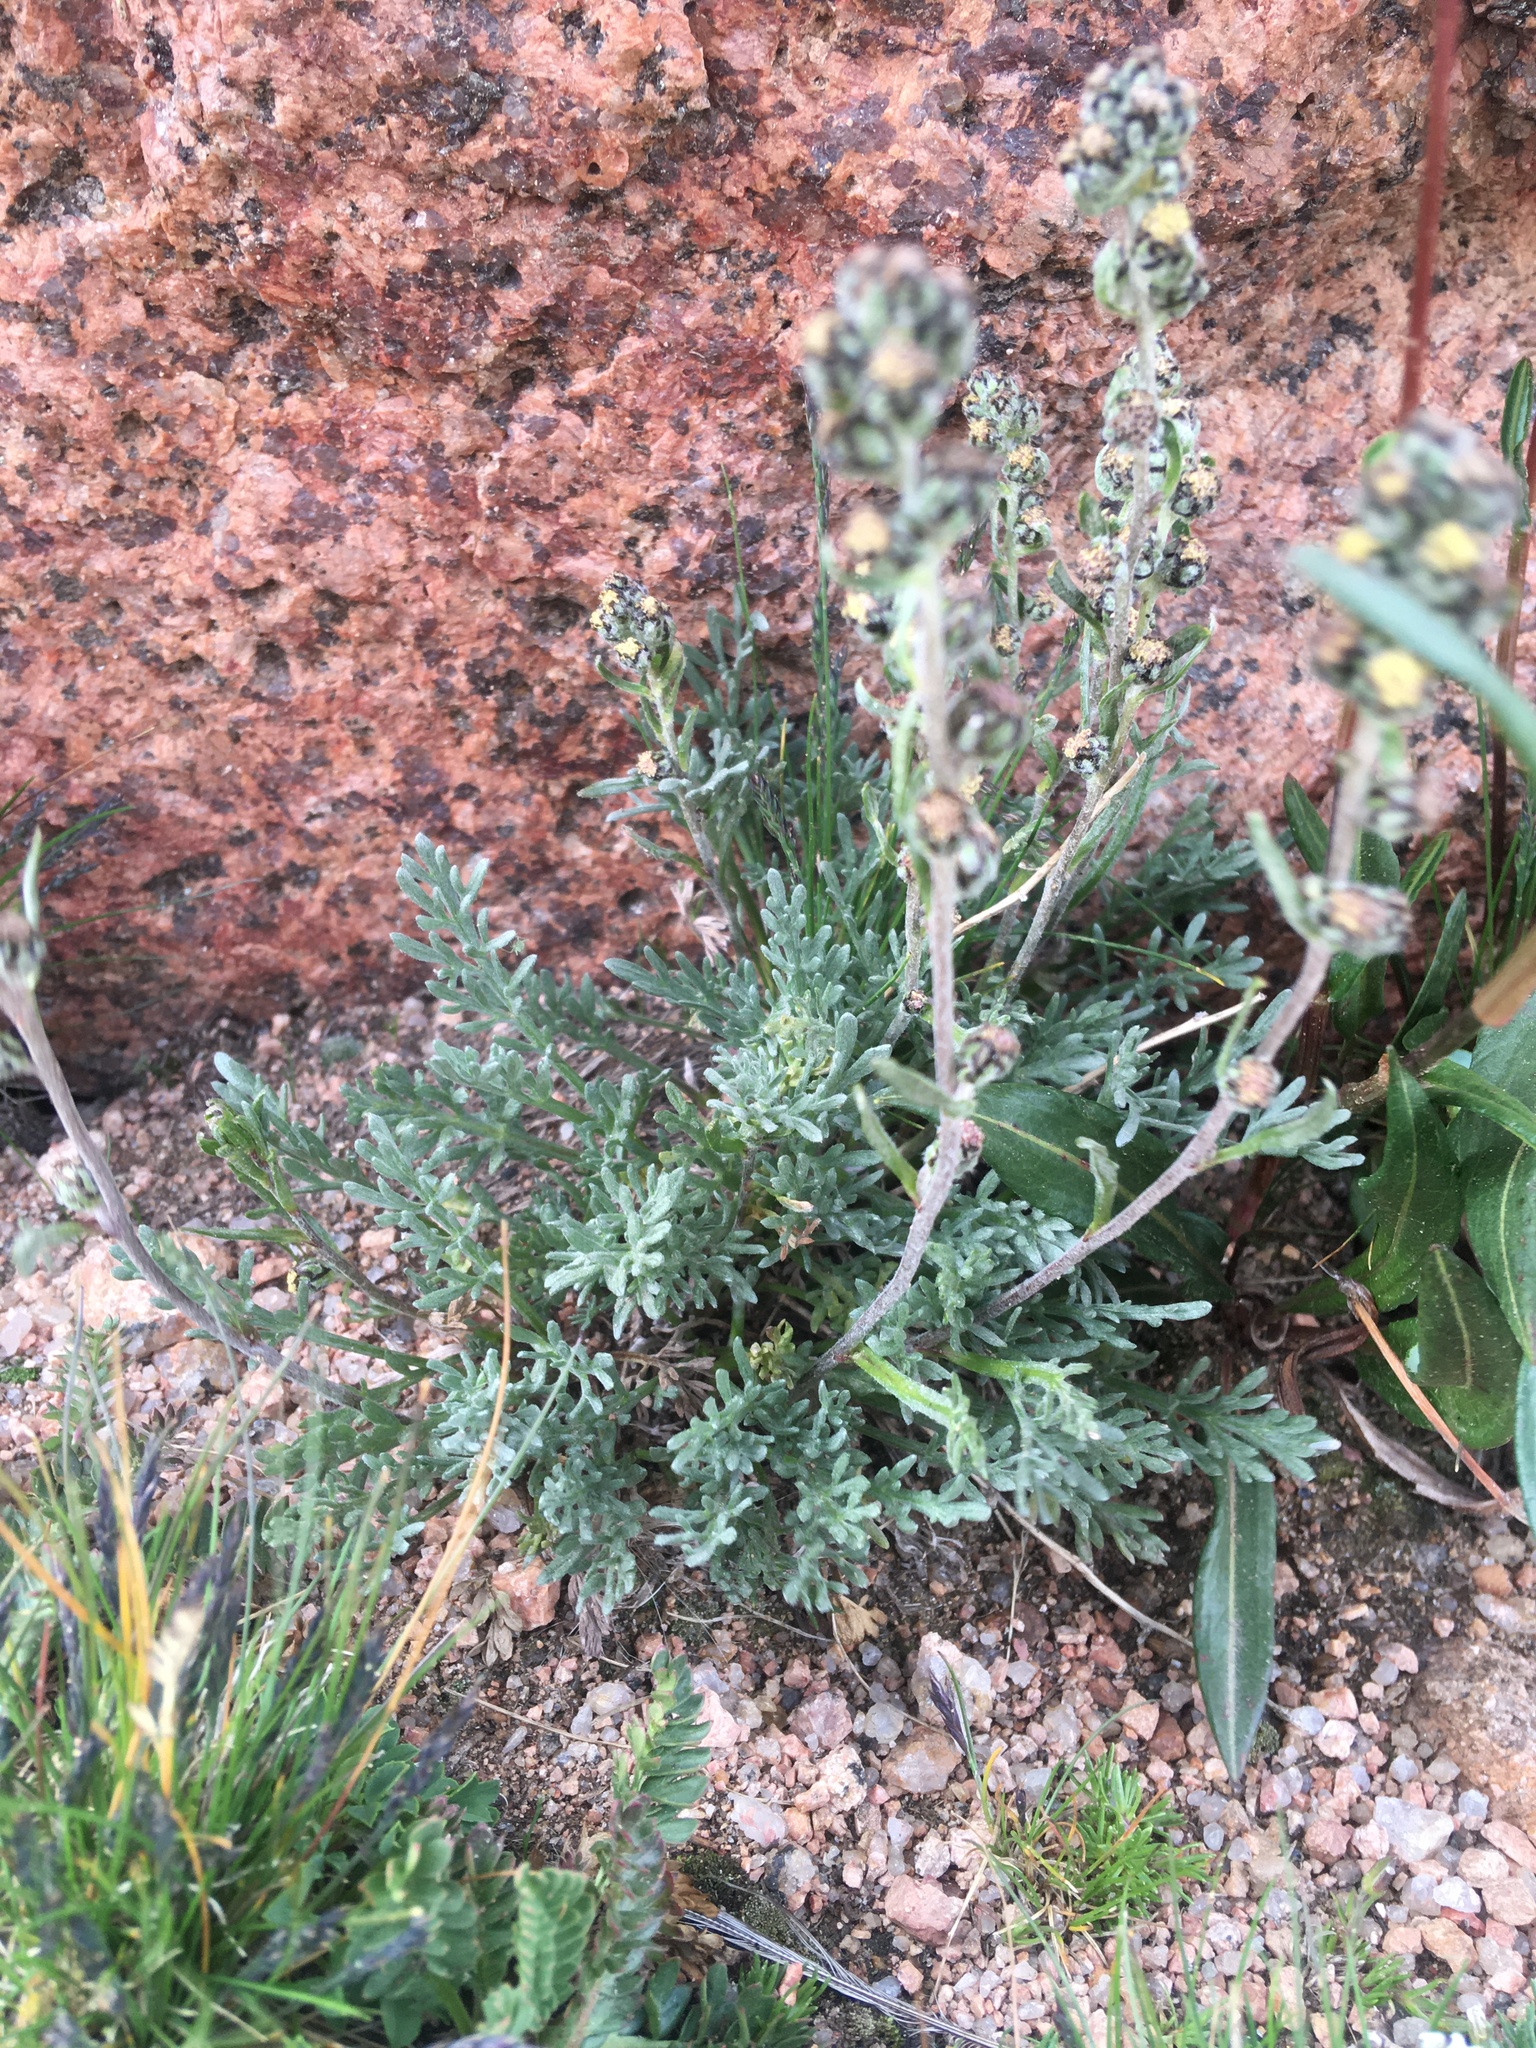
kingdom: Plantae
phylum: Tracheophyta
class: Magnoliopsida
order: Asterales
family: Asteraceae
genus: Artemisia
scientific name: Artemisia scopulorum
